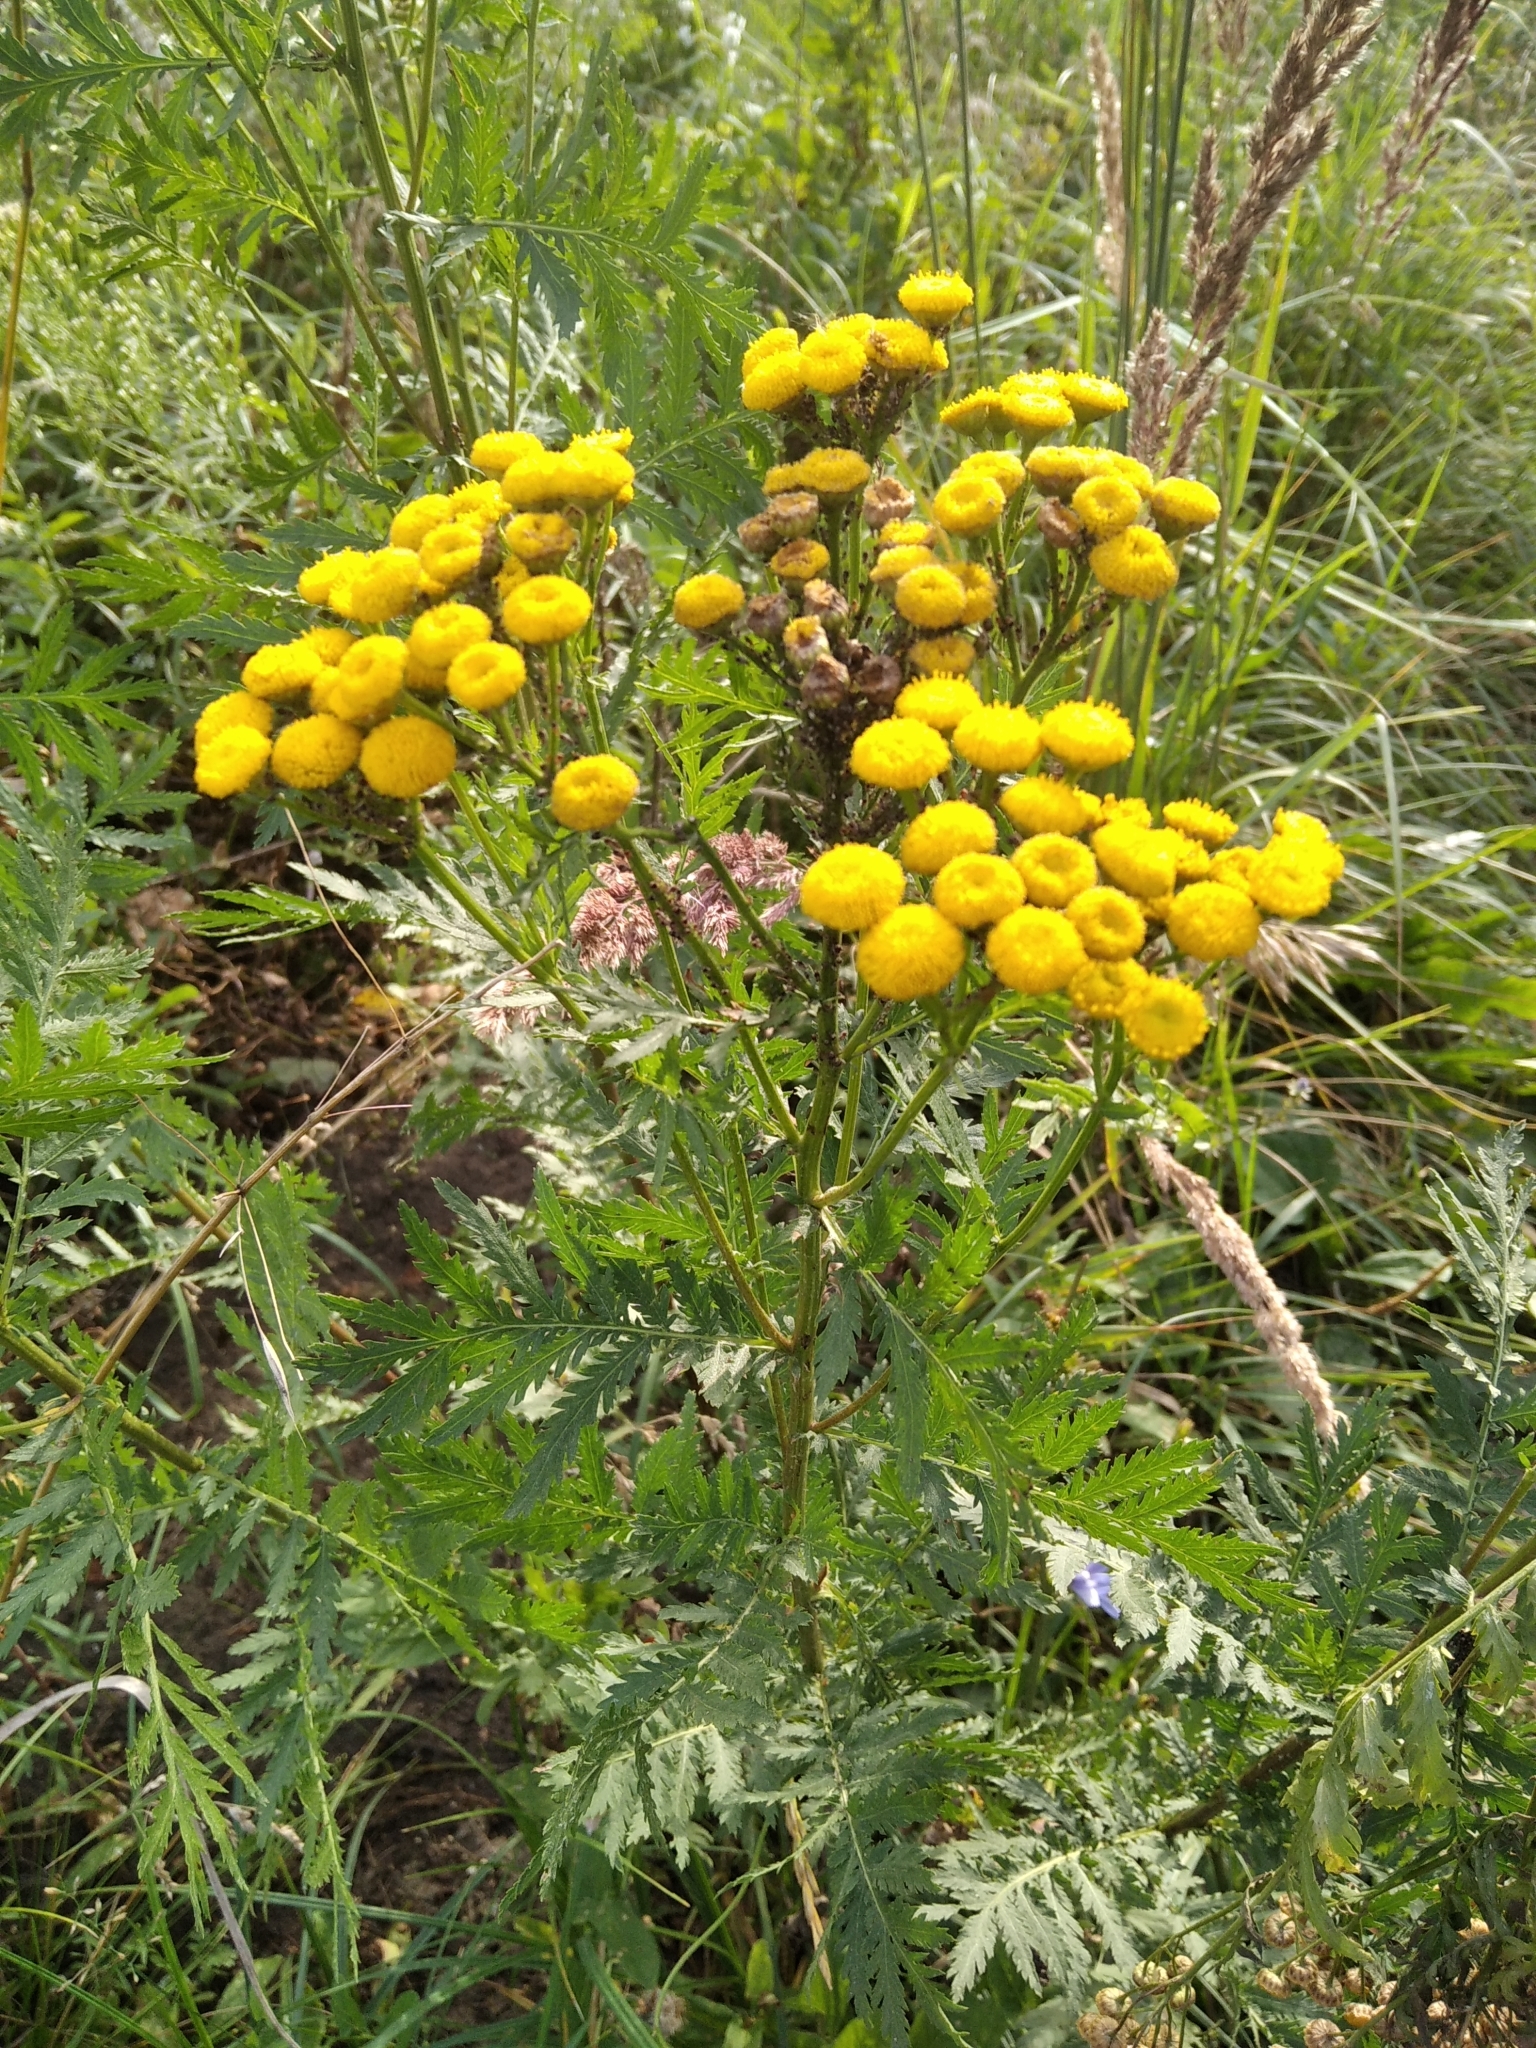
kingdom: Plantae
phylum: Tracheophyta
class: Magnoliopsida
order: Asterales
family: Asteraceae
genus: Tanacetum
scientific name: Tanacetum vulgare
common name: Common tansy
